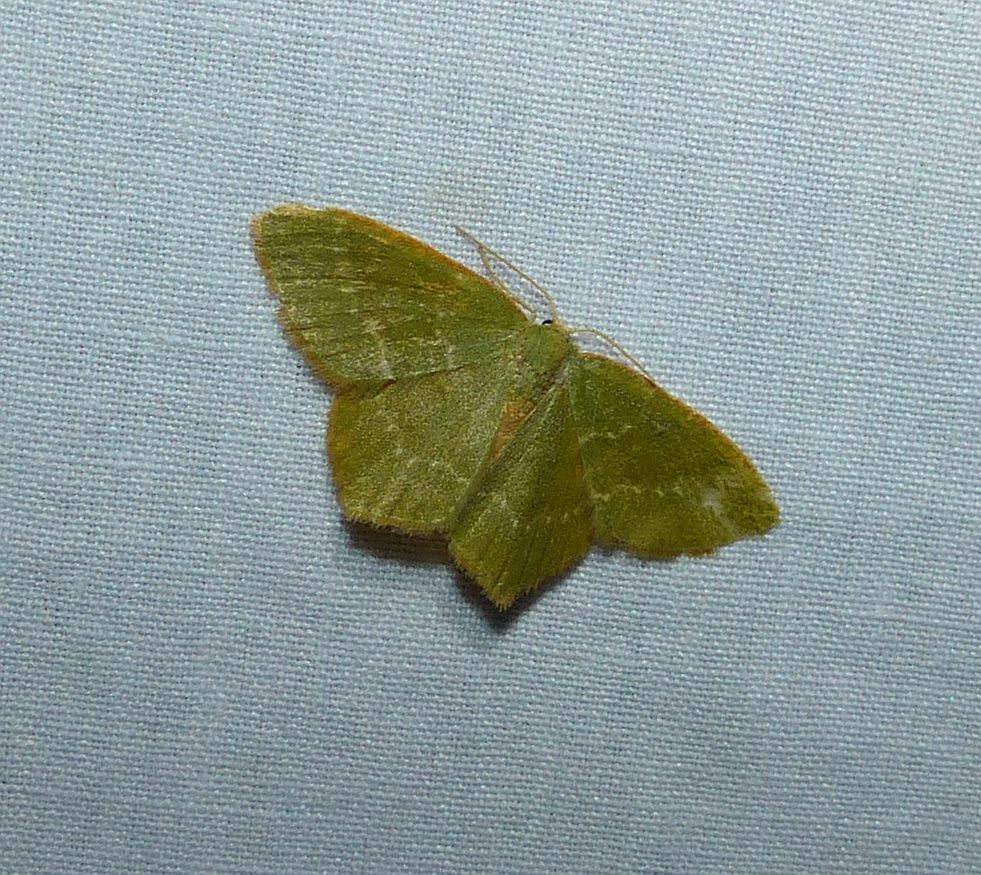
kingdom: Animalia
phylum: Arthropoda
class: Insecta
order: Lepidoptera
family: Geometridae
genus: Thalera
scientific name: Thalera pistasciaria
